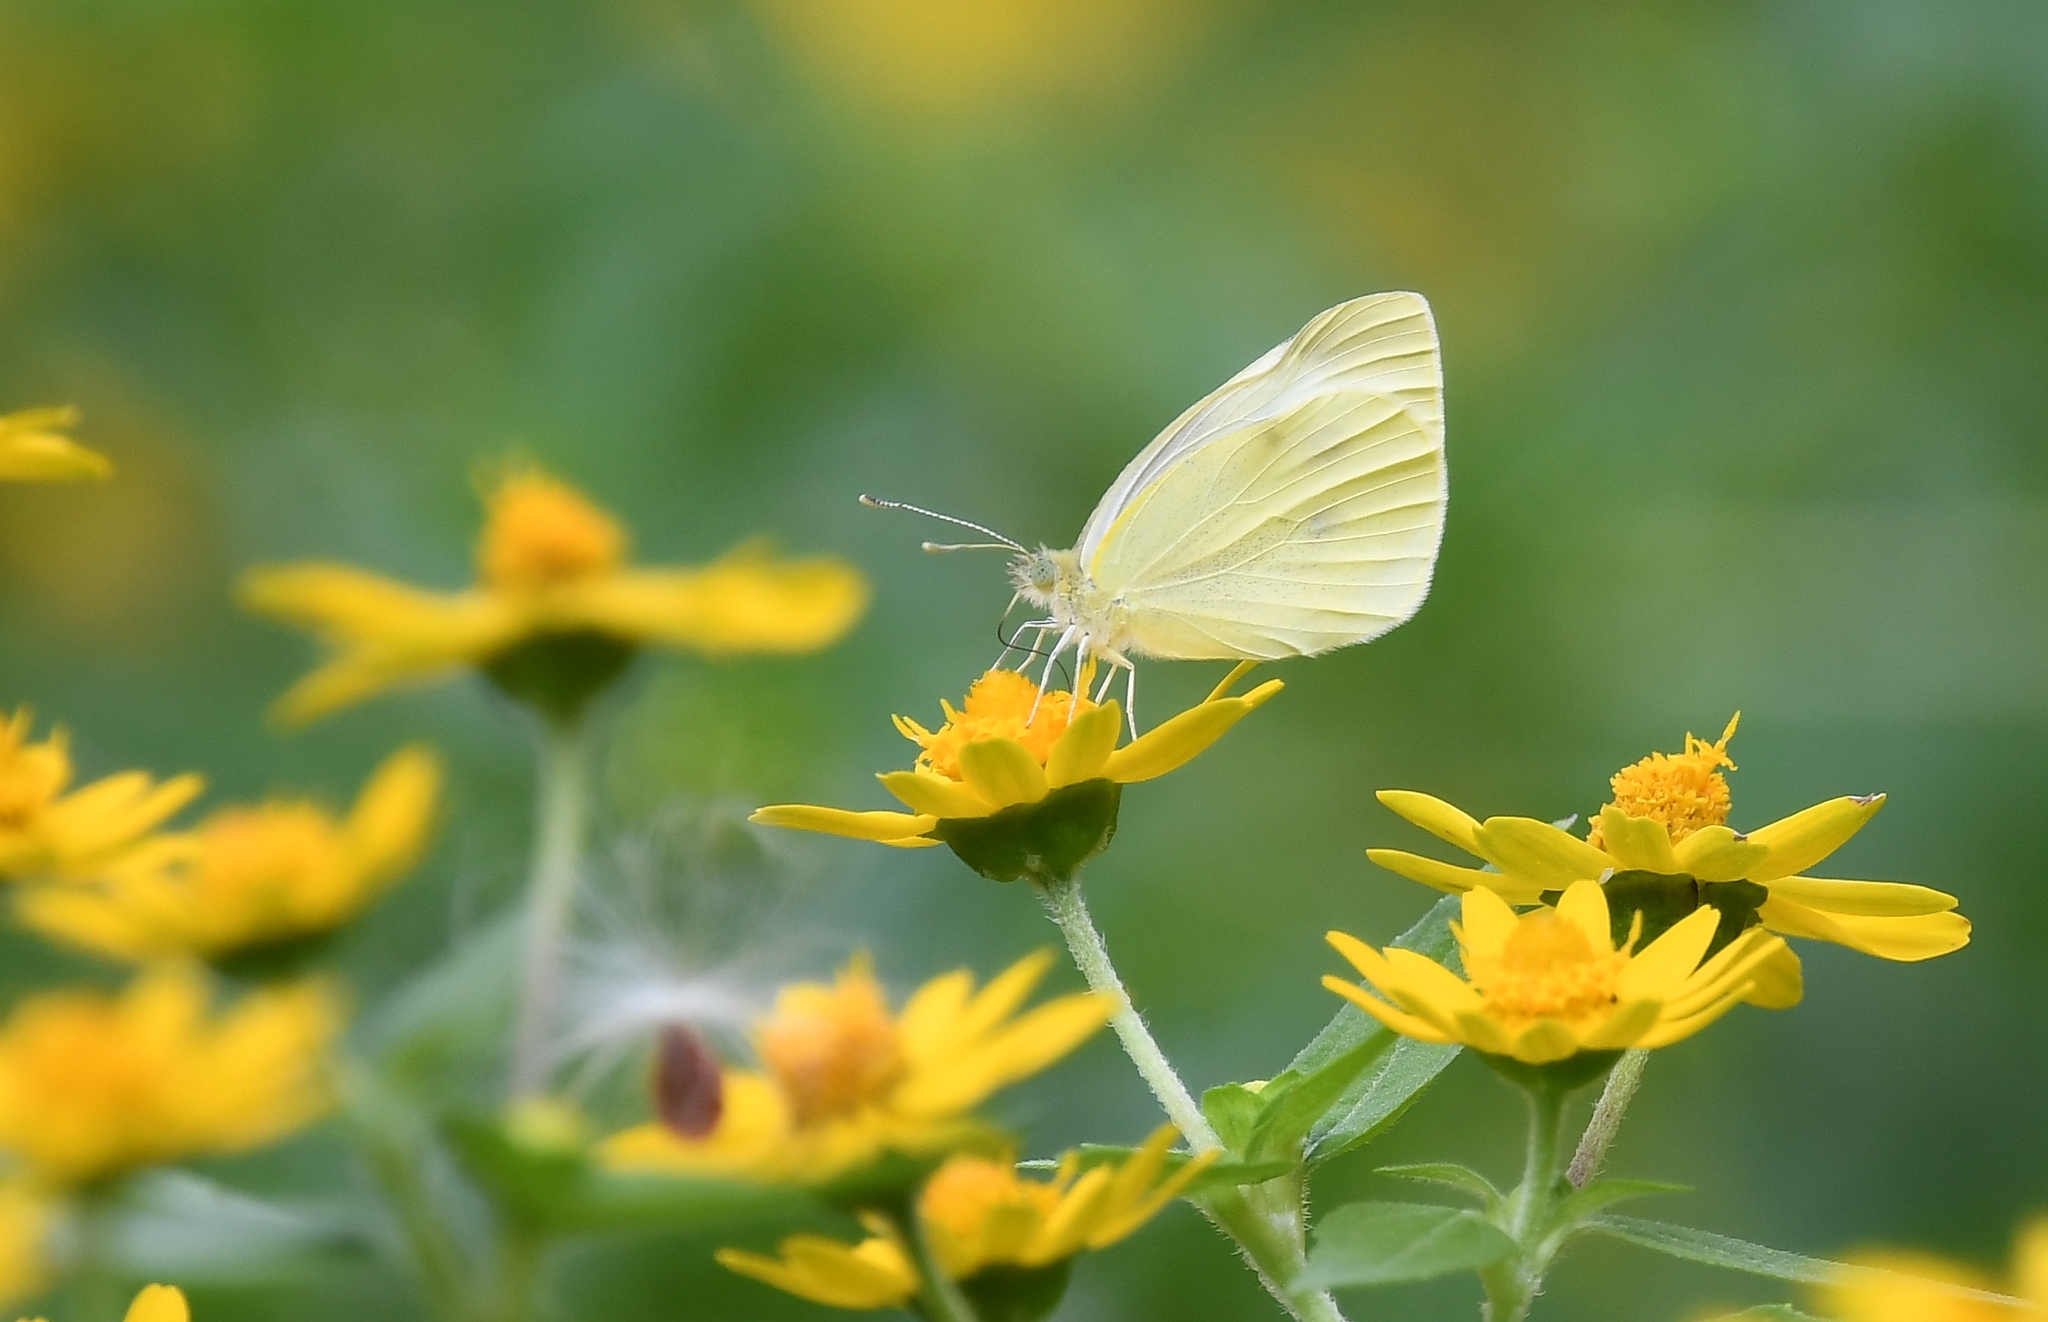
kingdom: Animalia
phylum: Arthropoda
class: Insecta
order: Lepidoptera
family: Pieridae
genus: Pieris
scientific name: Pieris rapae
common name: Small white
